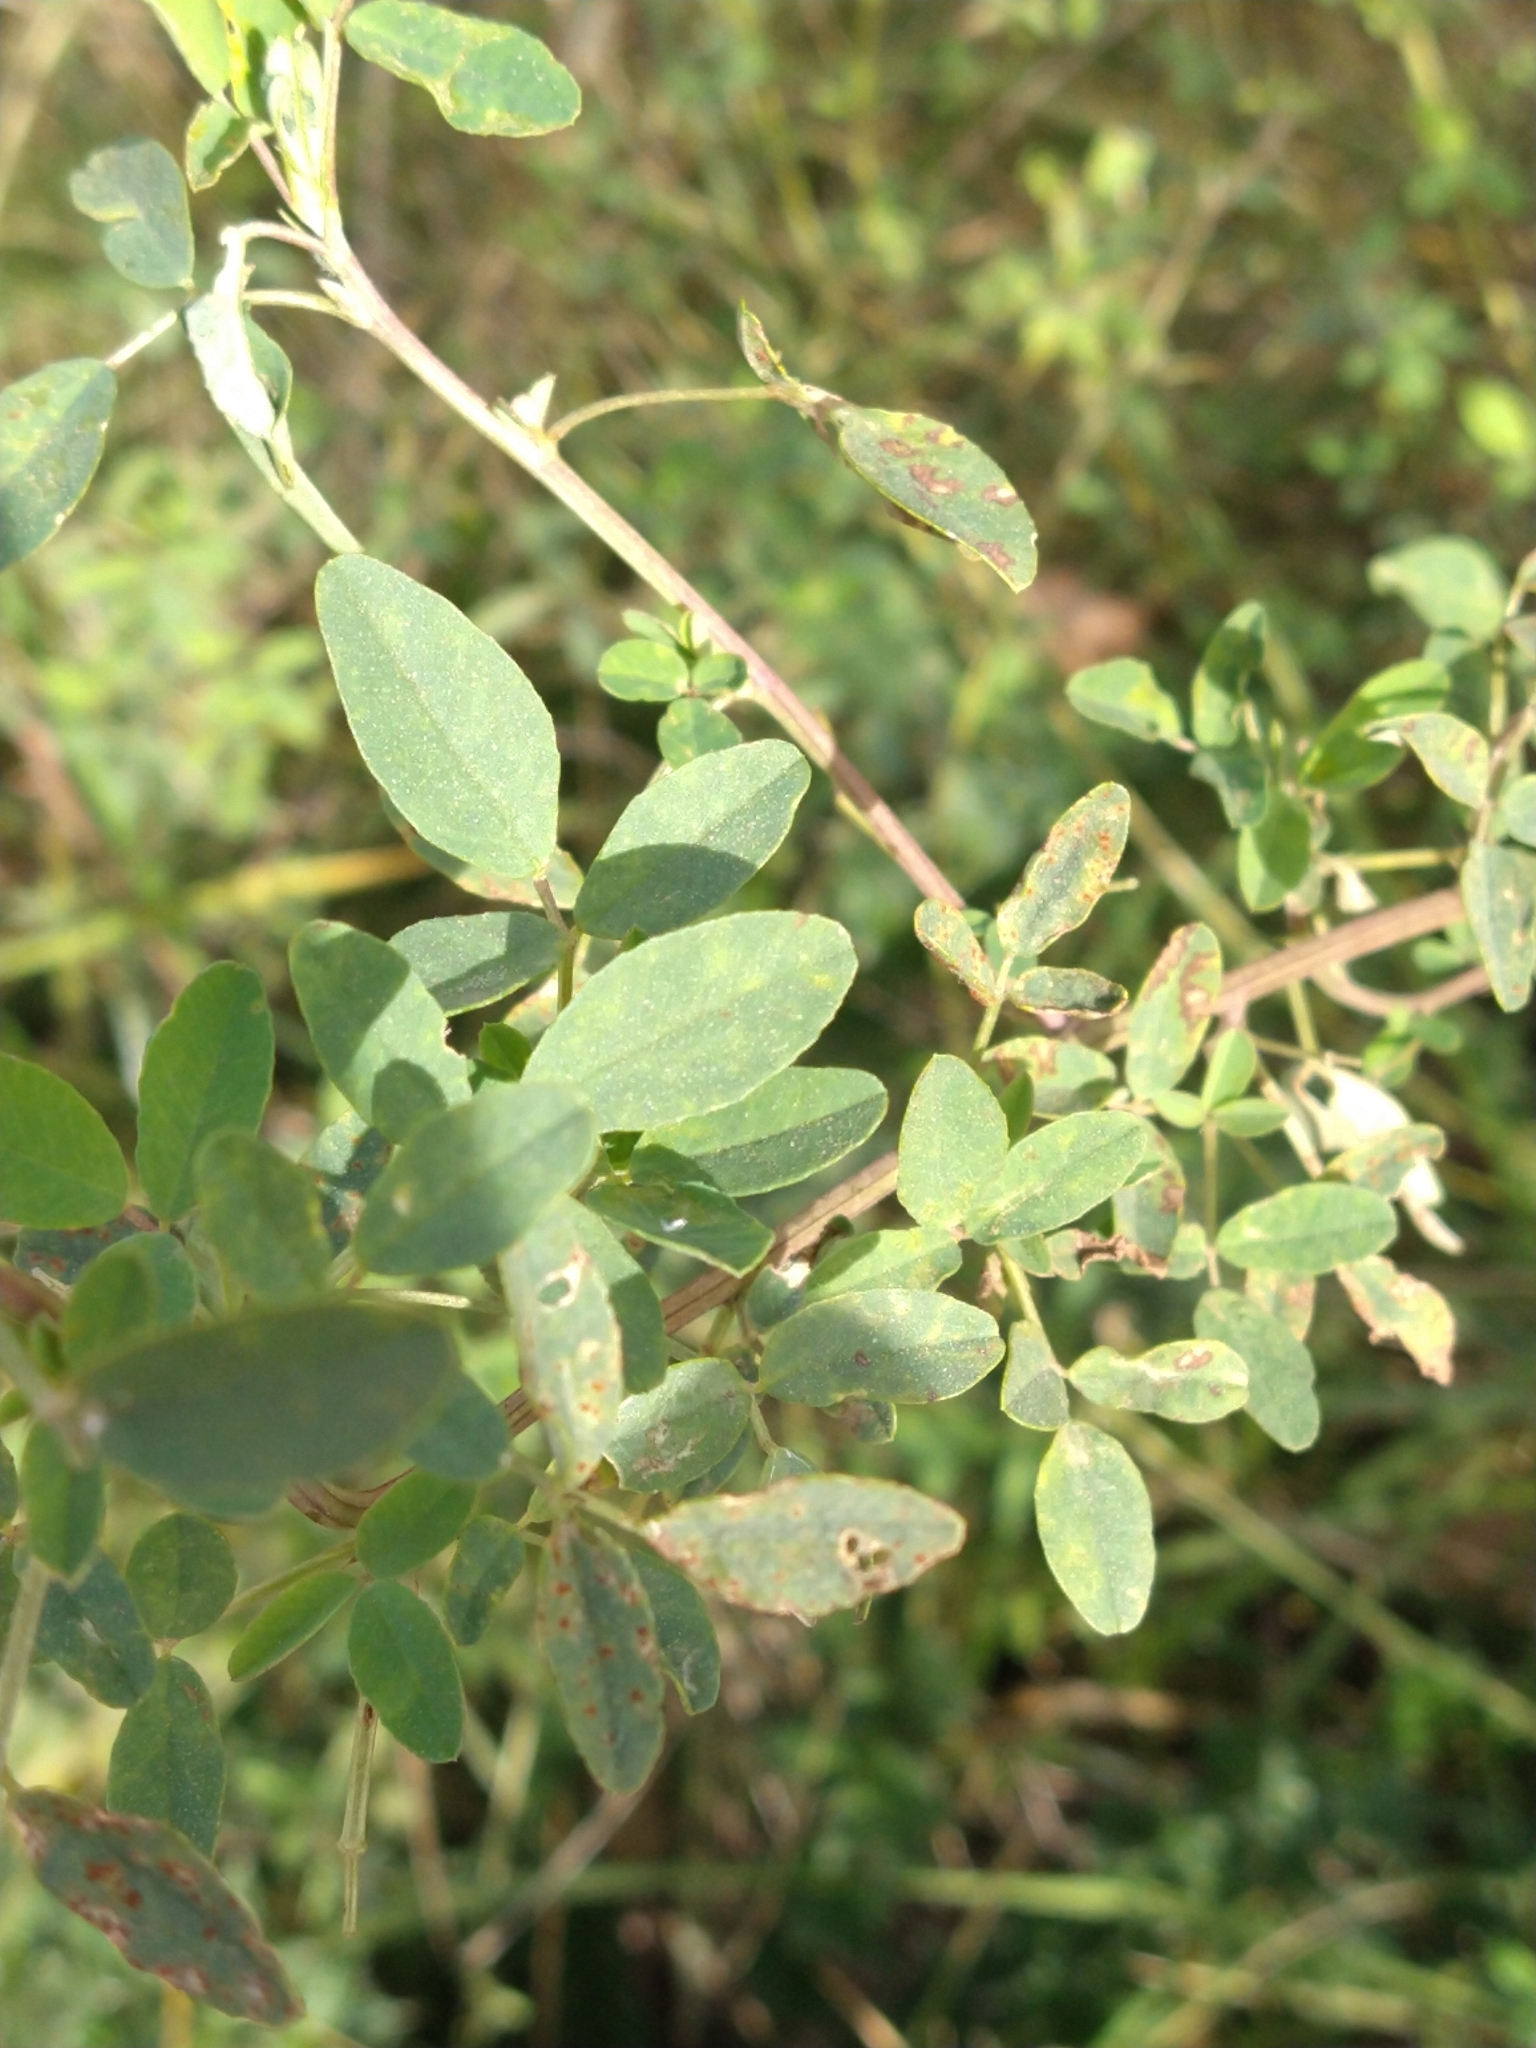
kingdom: Plantae
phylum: Tracheophyta
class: Magnoliopsida
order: Fabales
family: Fabaceae
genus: Melilotus
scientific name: Melilotus albus
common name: White melilot
